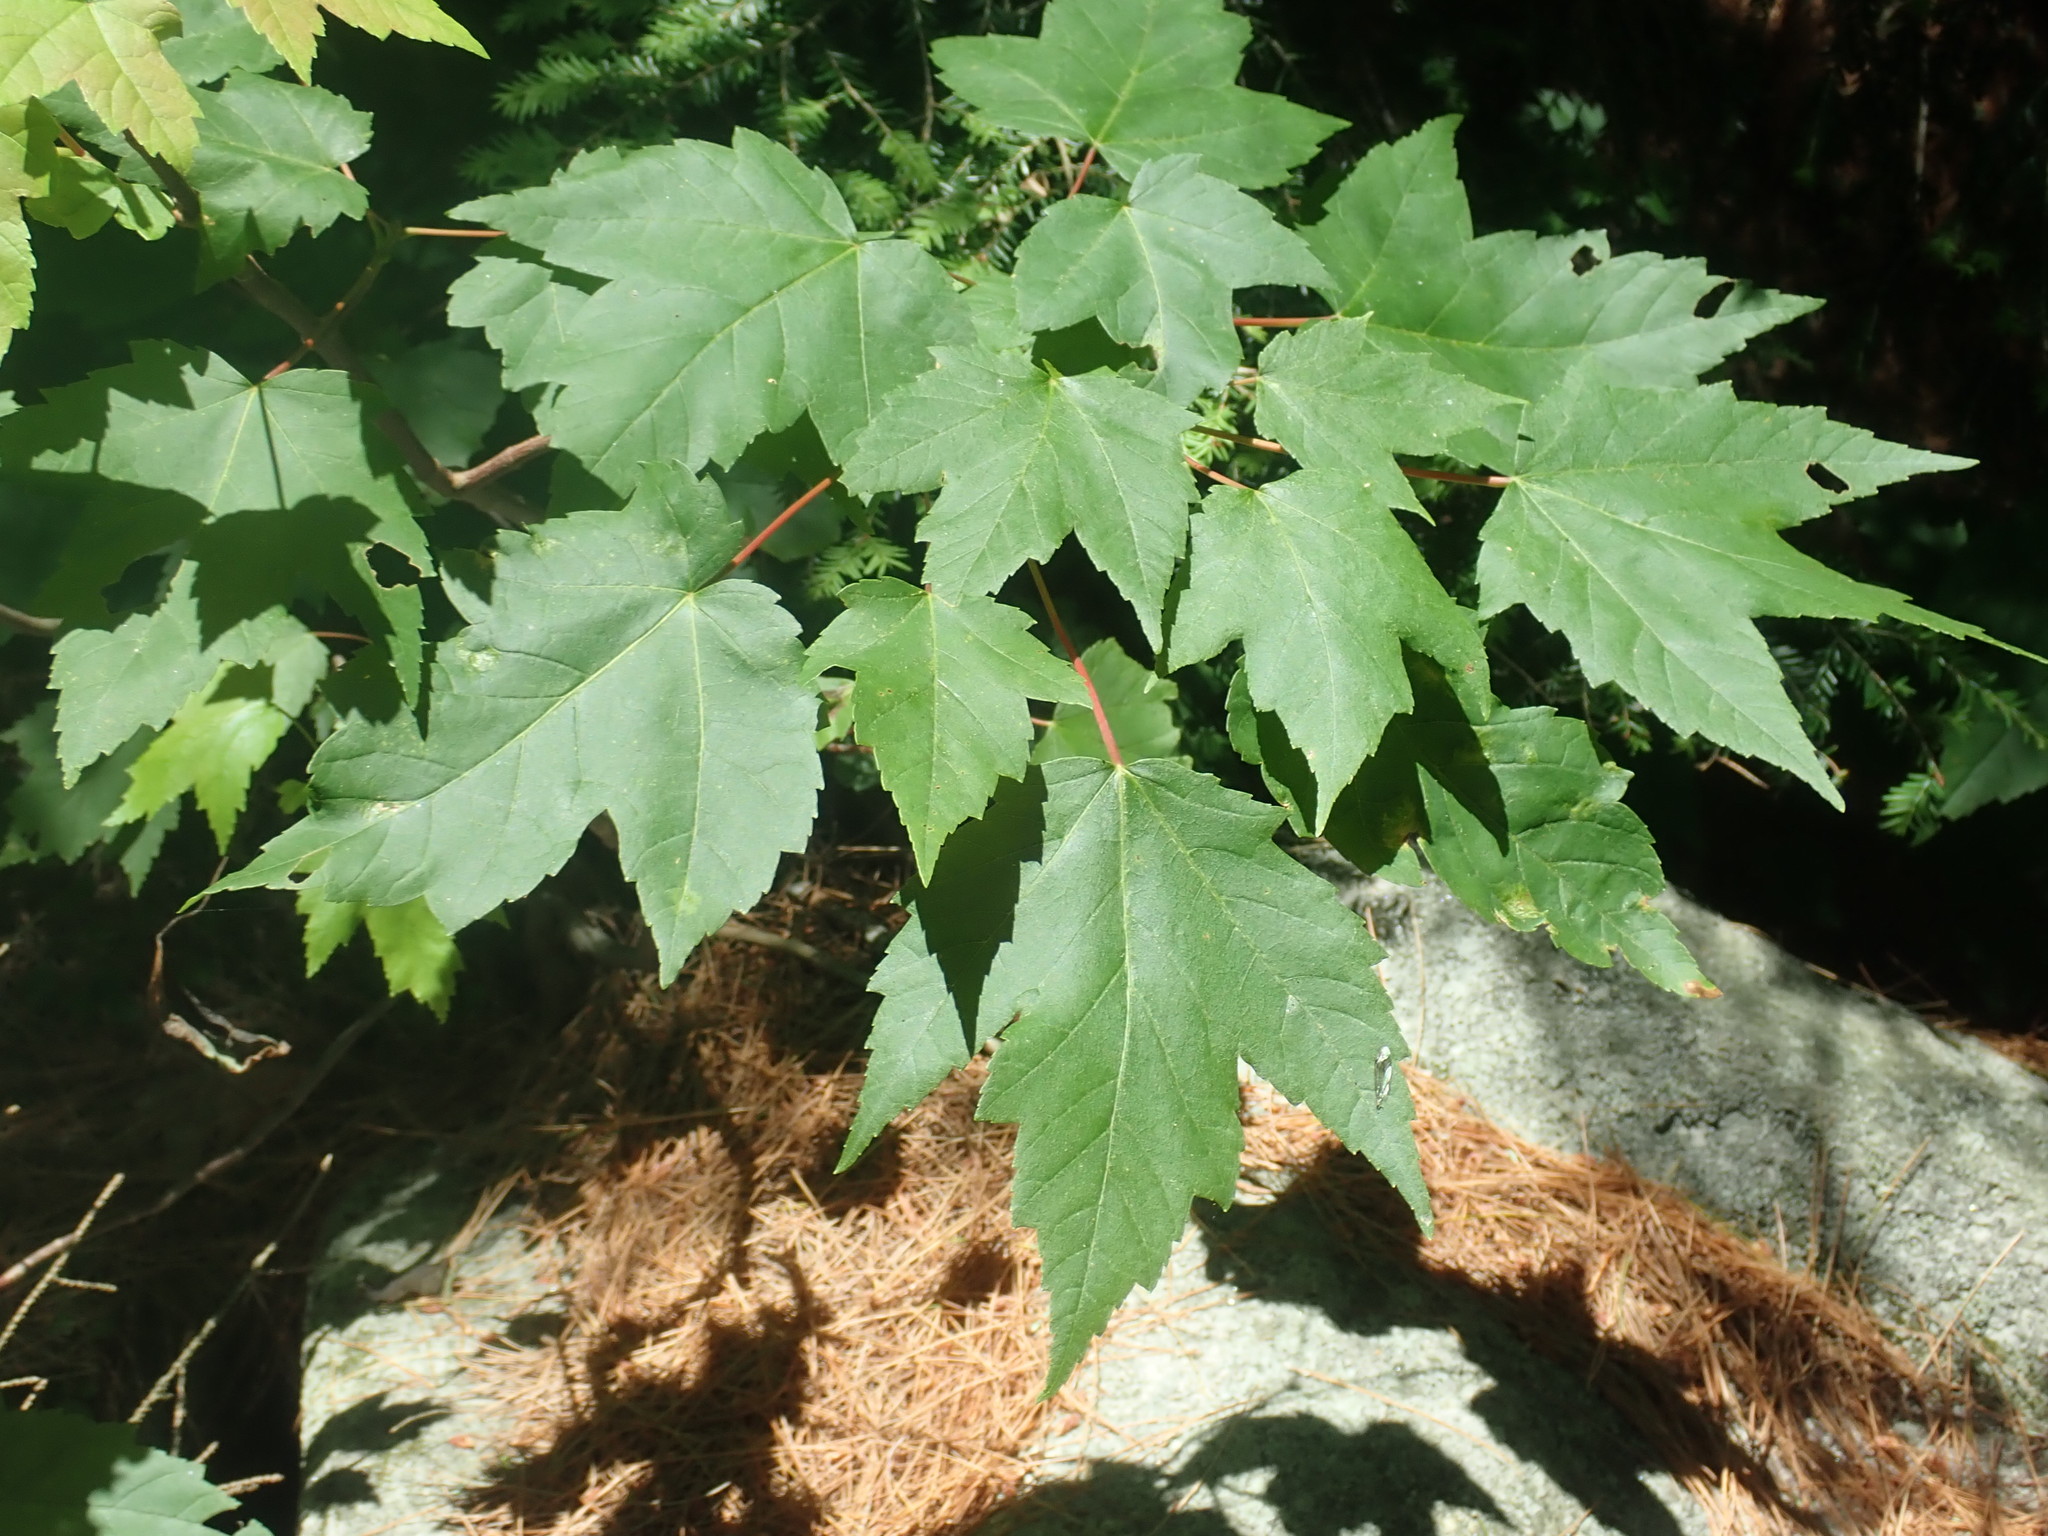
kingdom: Plantae
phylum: Tracheophyta
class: Magnoliopsida
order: Sapindales
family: Sapindaceae
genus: Acer
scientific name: Acer rubrum
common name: Red maple
